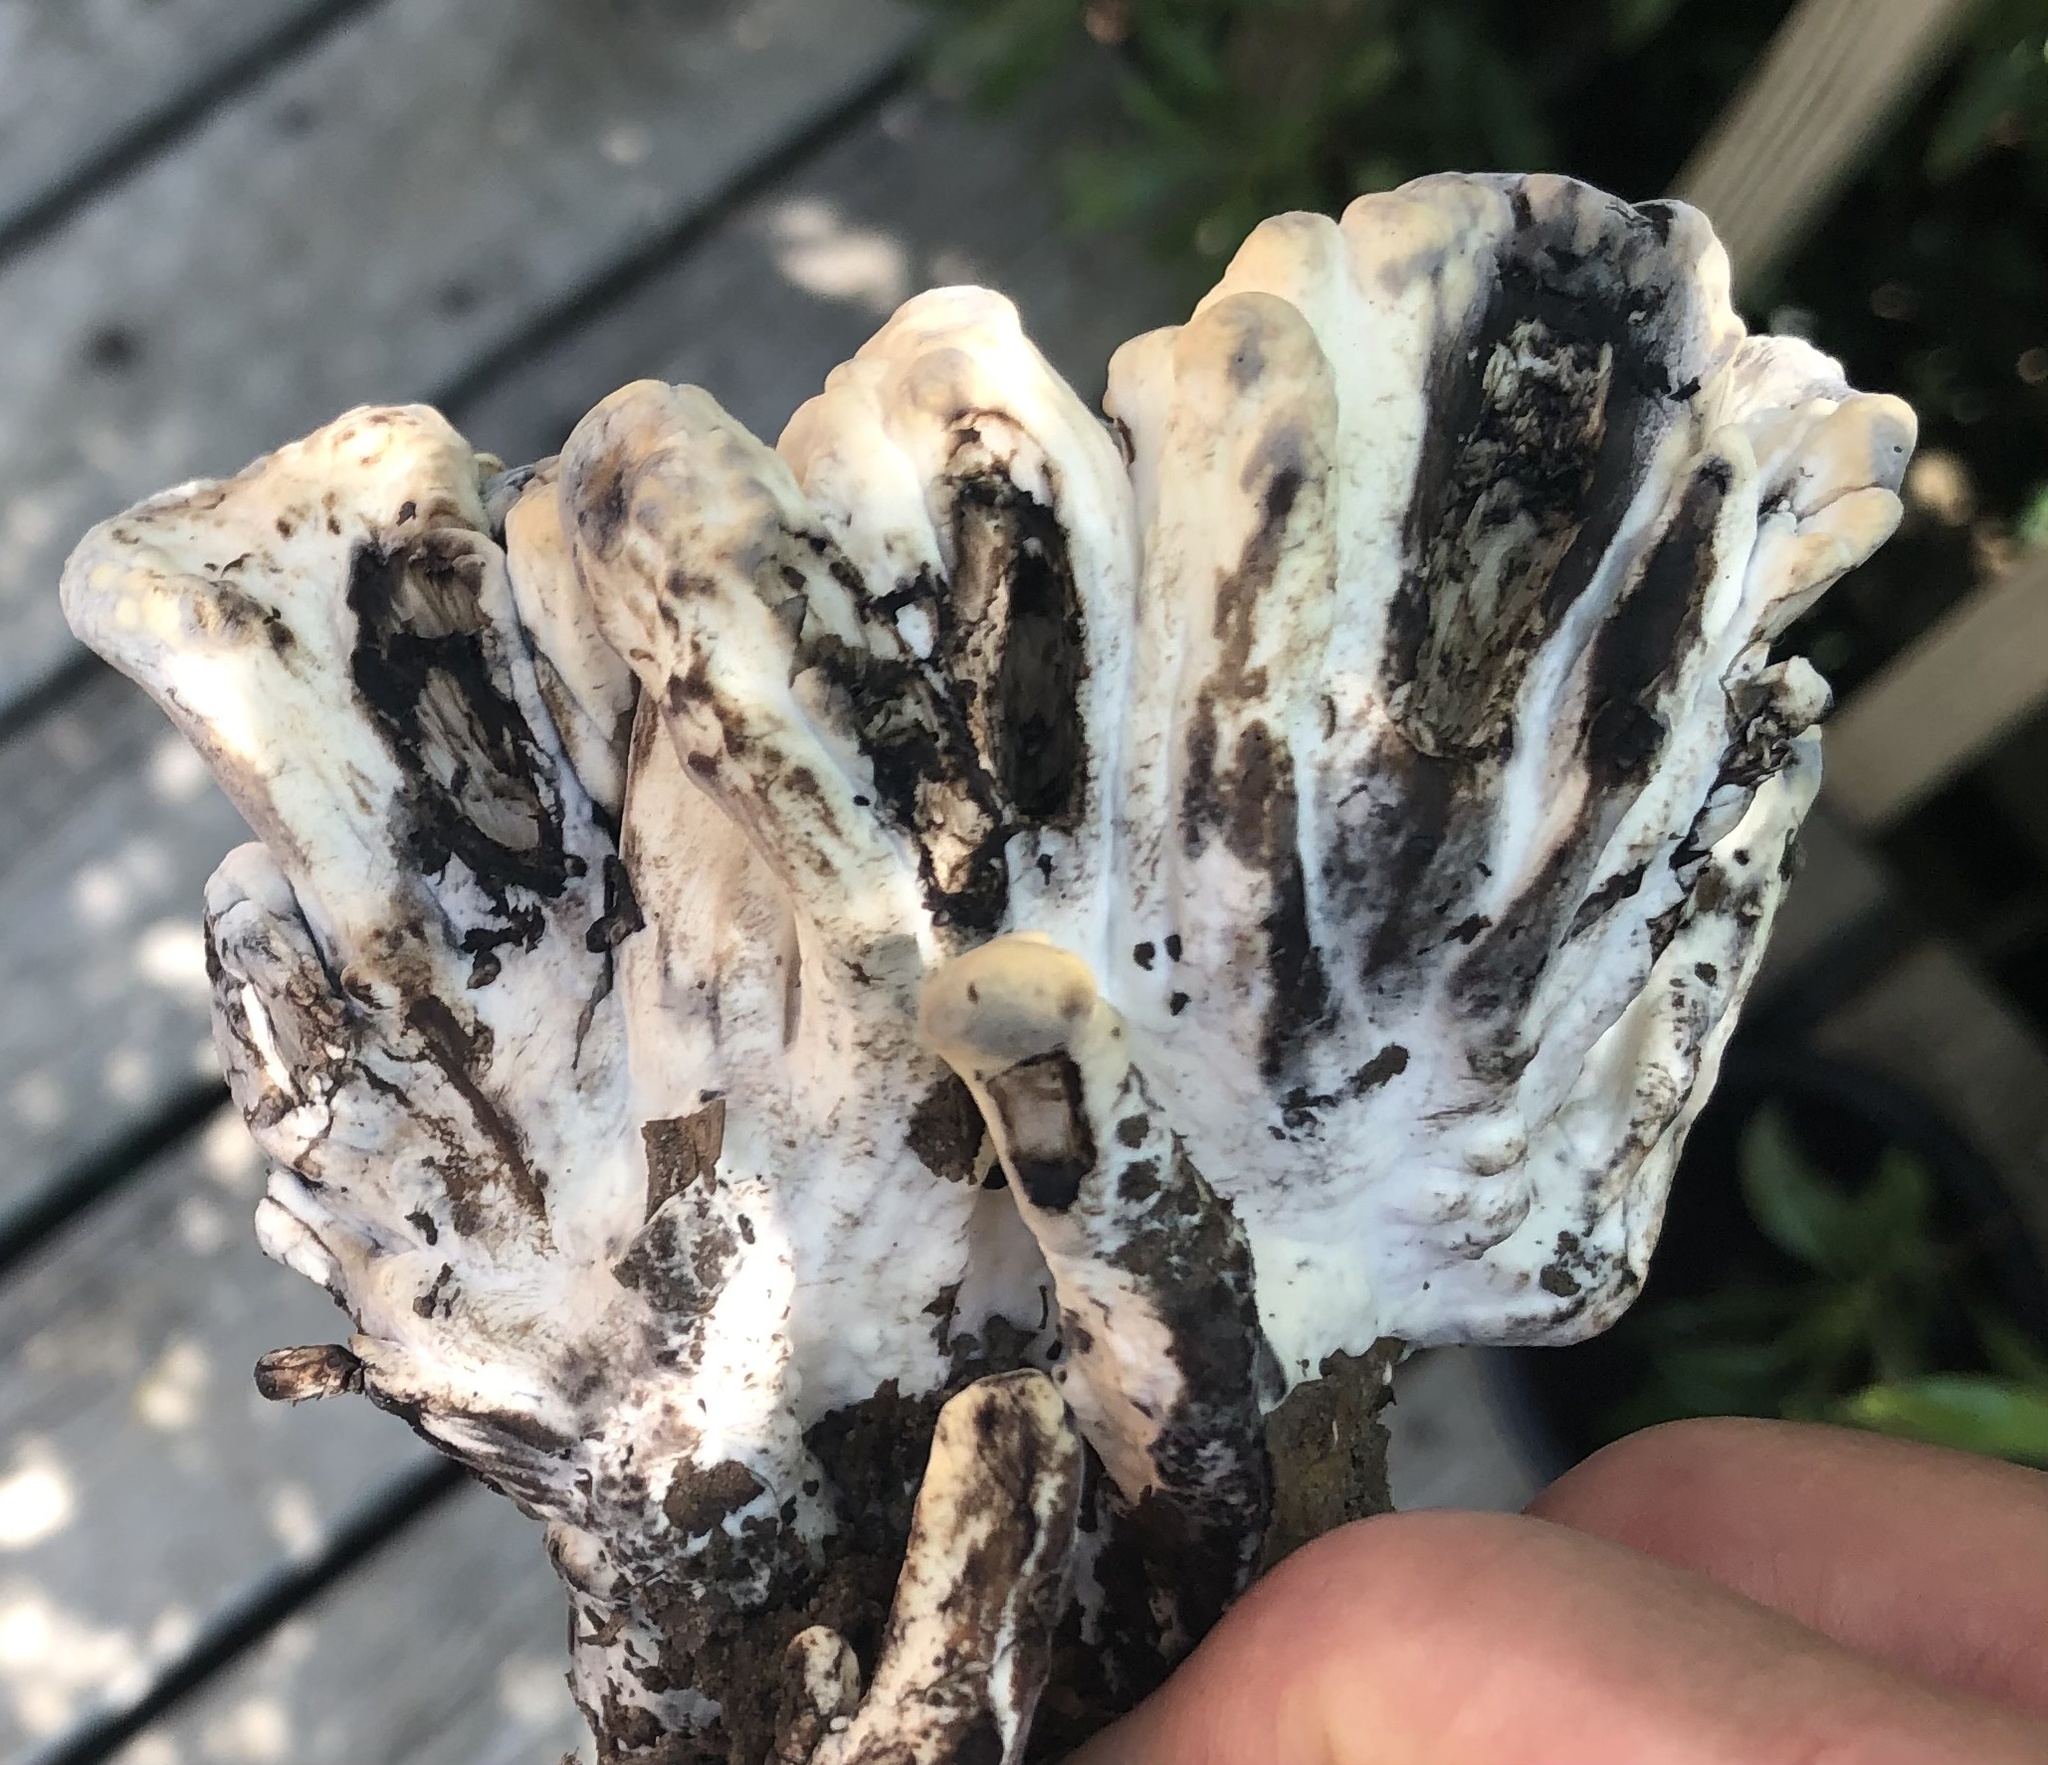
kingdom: Fungi
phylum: Basidiomycota
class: Agaricomycetes
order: Polyporales
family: Meripilaceae
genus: Meripilus
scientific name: Meripilus sumstinei
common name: Black-staining polypore
